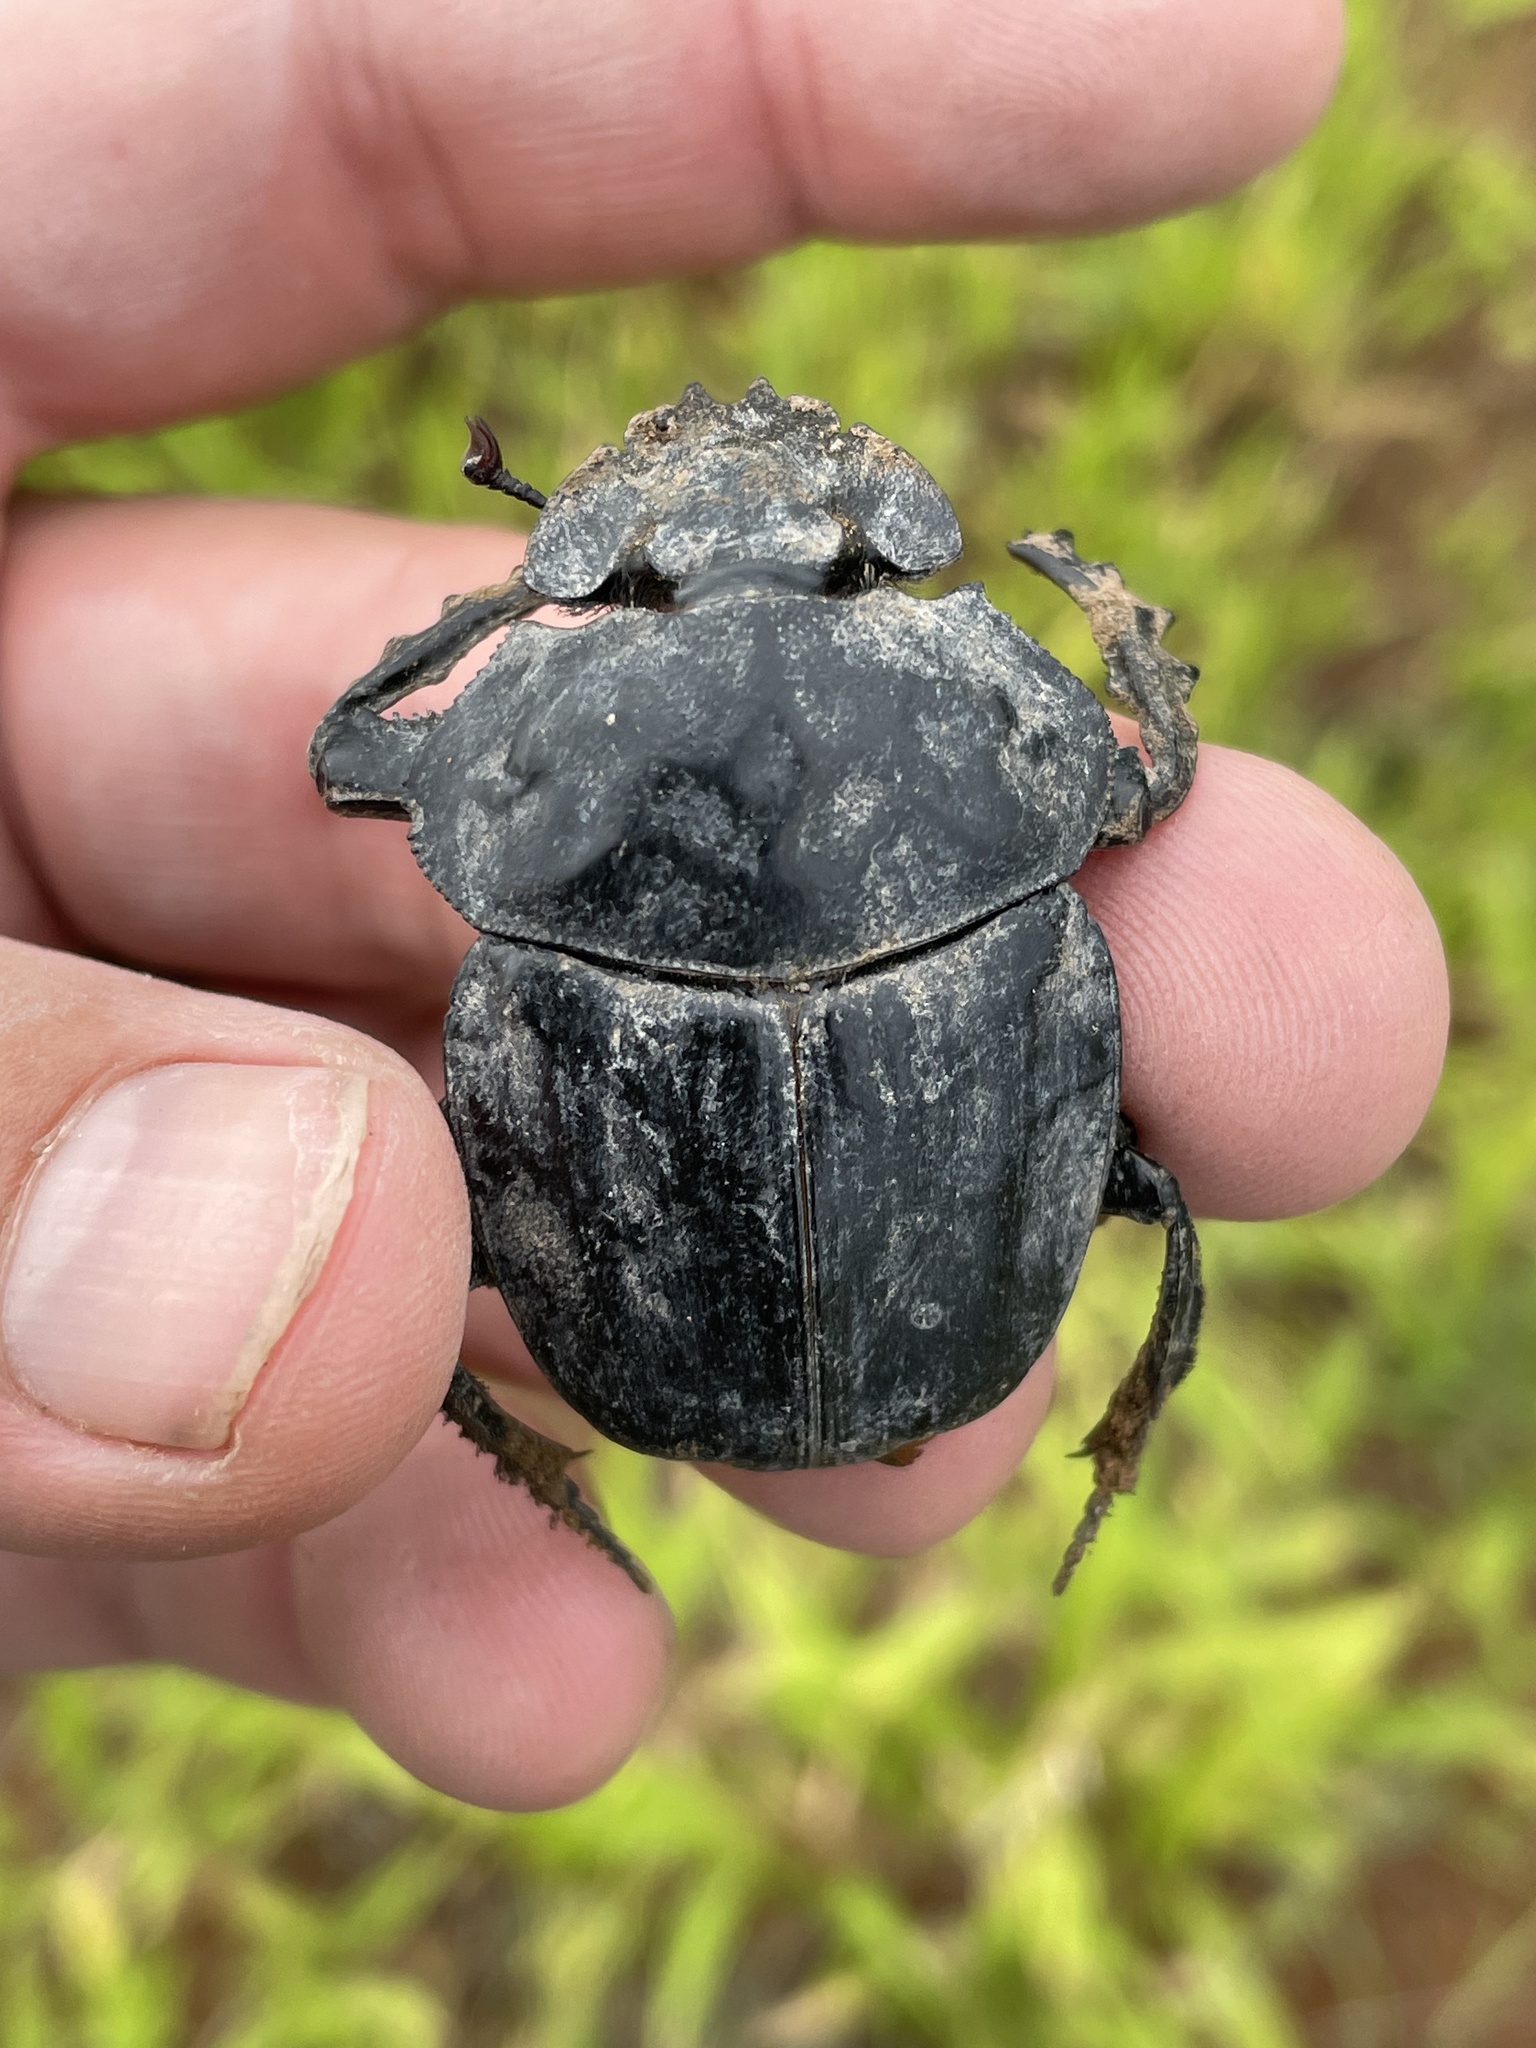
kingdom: Animalia
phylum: Arthropoda
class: Insecta
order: Coleoptera
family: Scarabaeidae
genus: Pachylomera
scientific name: Pachylomera femoralis
